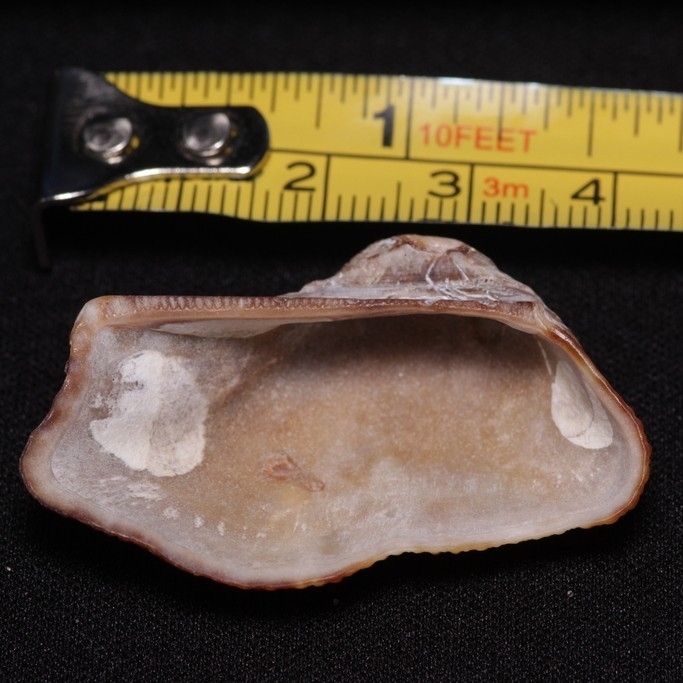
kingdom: Animalia
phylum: Mollusca
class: Bivalvia
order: Arcida
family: Arcidae
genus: Lamarcka
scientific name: Lamarcka imbricata
